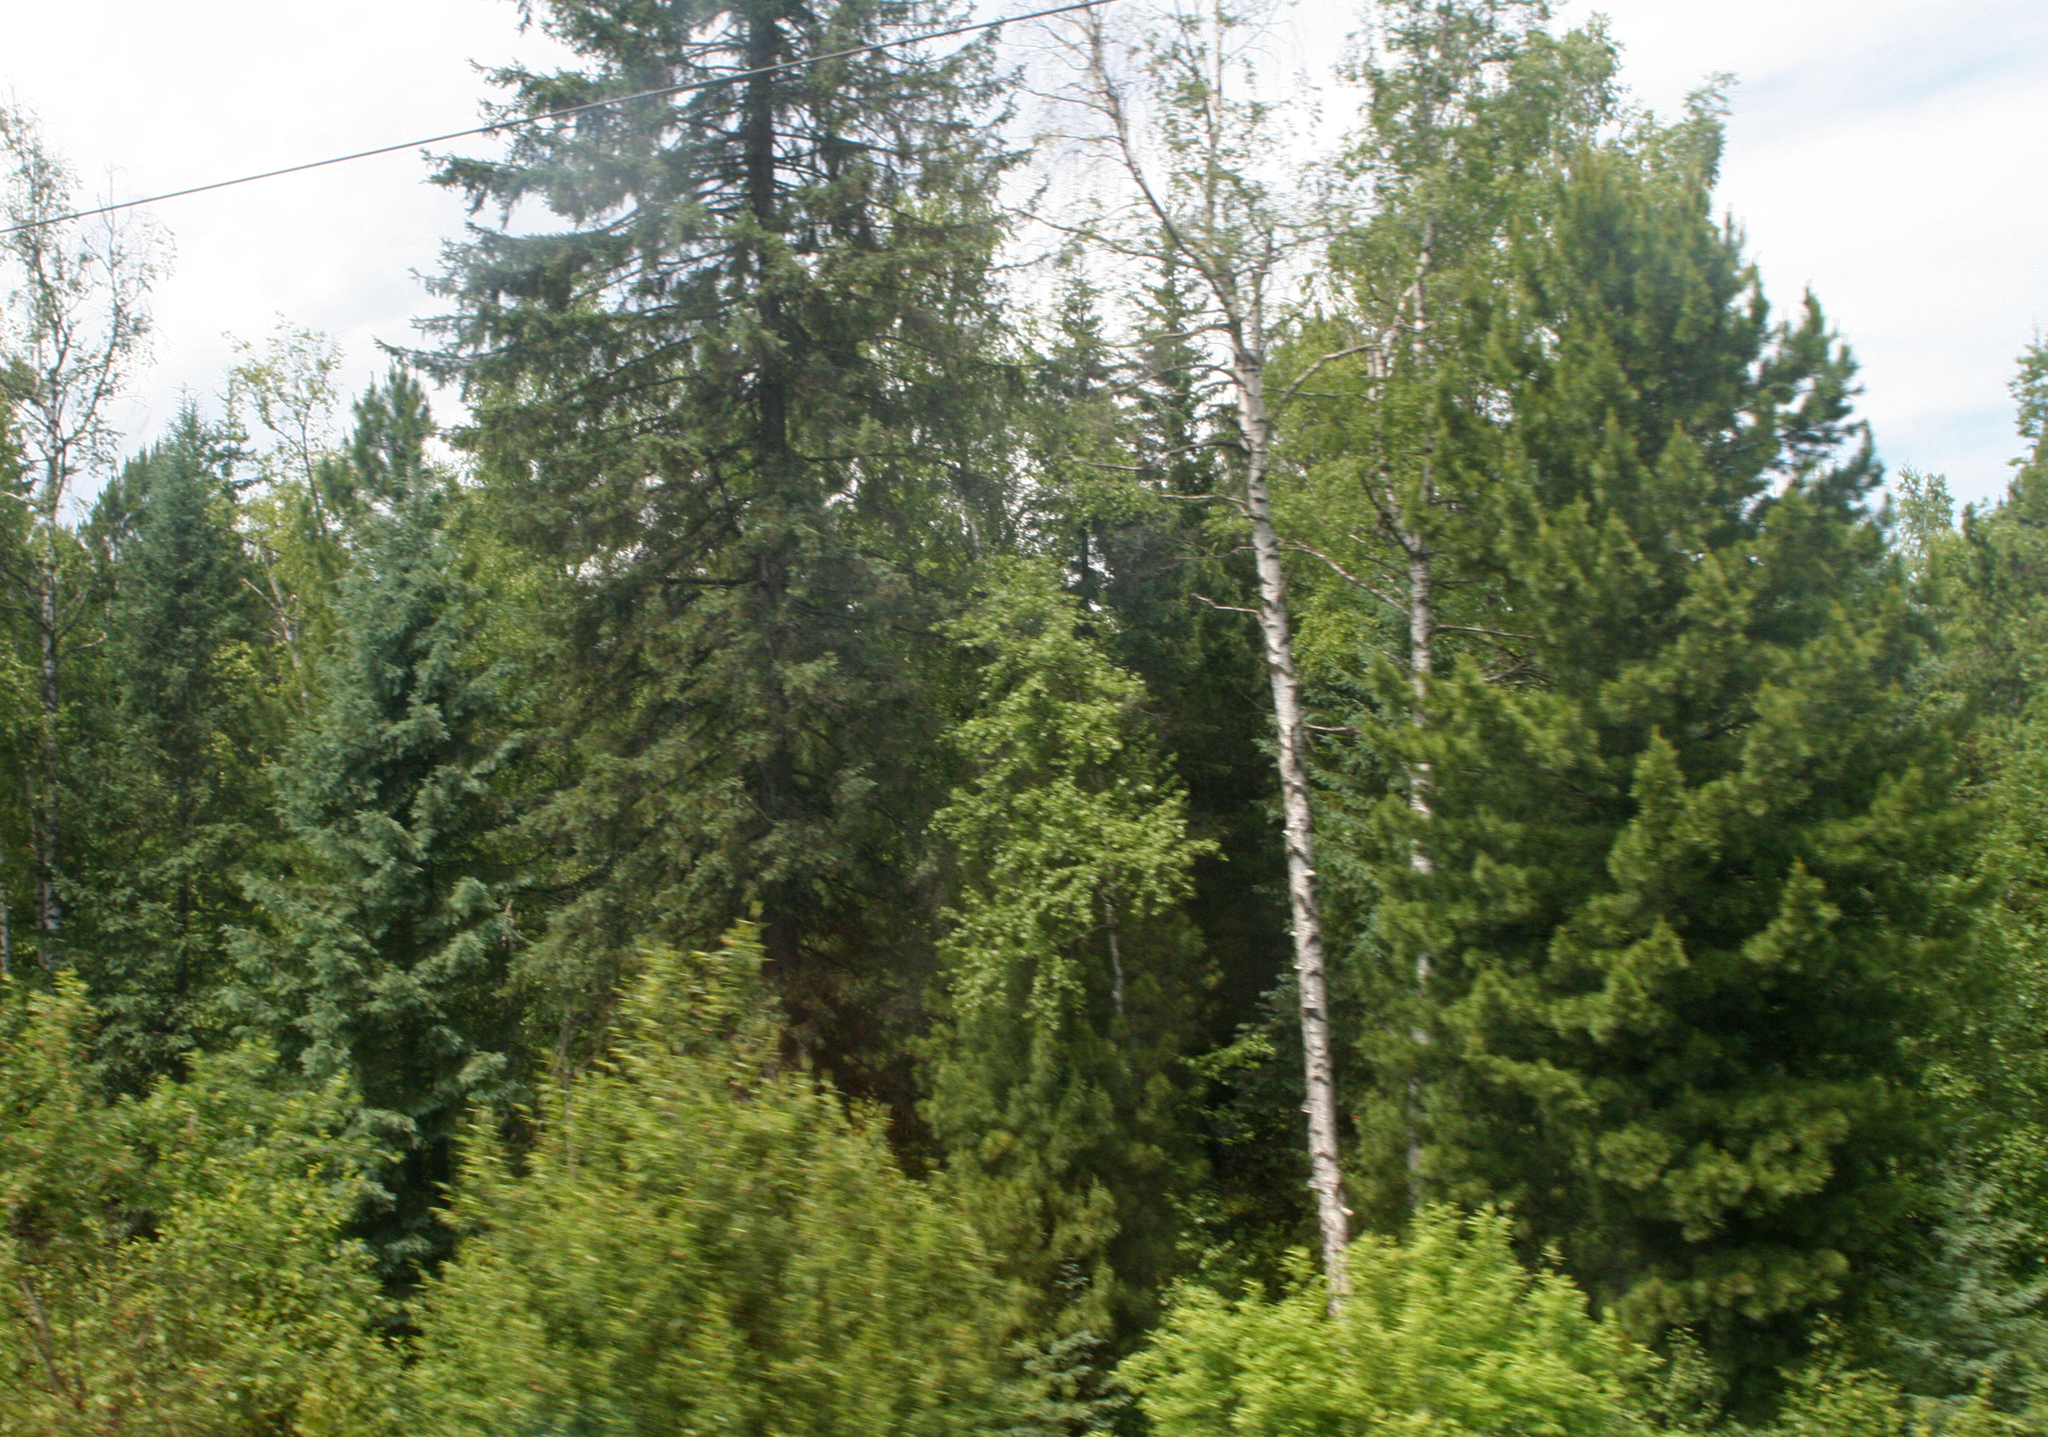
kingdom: Plantae
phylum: Tracheophyta
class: Pinopsida
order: Pinales
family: Pinaceae
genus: Pinus
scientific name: Pinus sibirica
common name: Siberian pine
